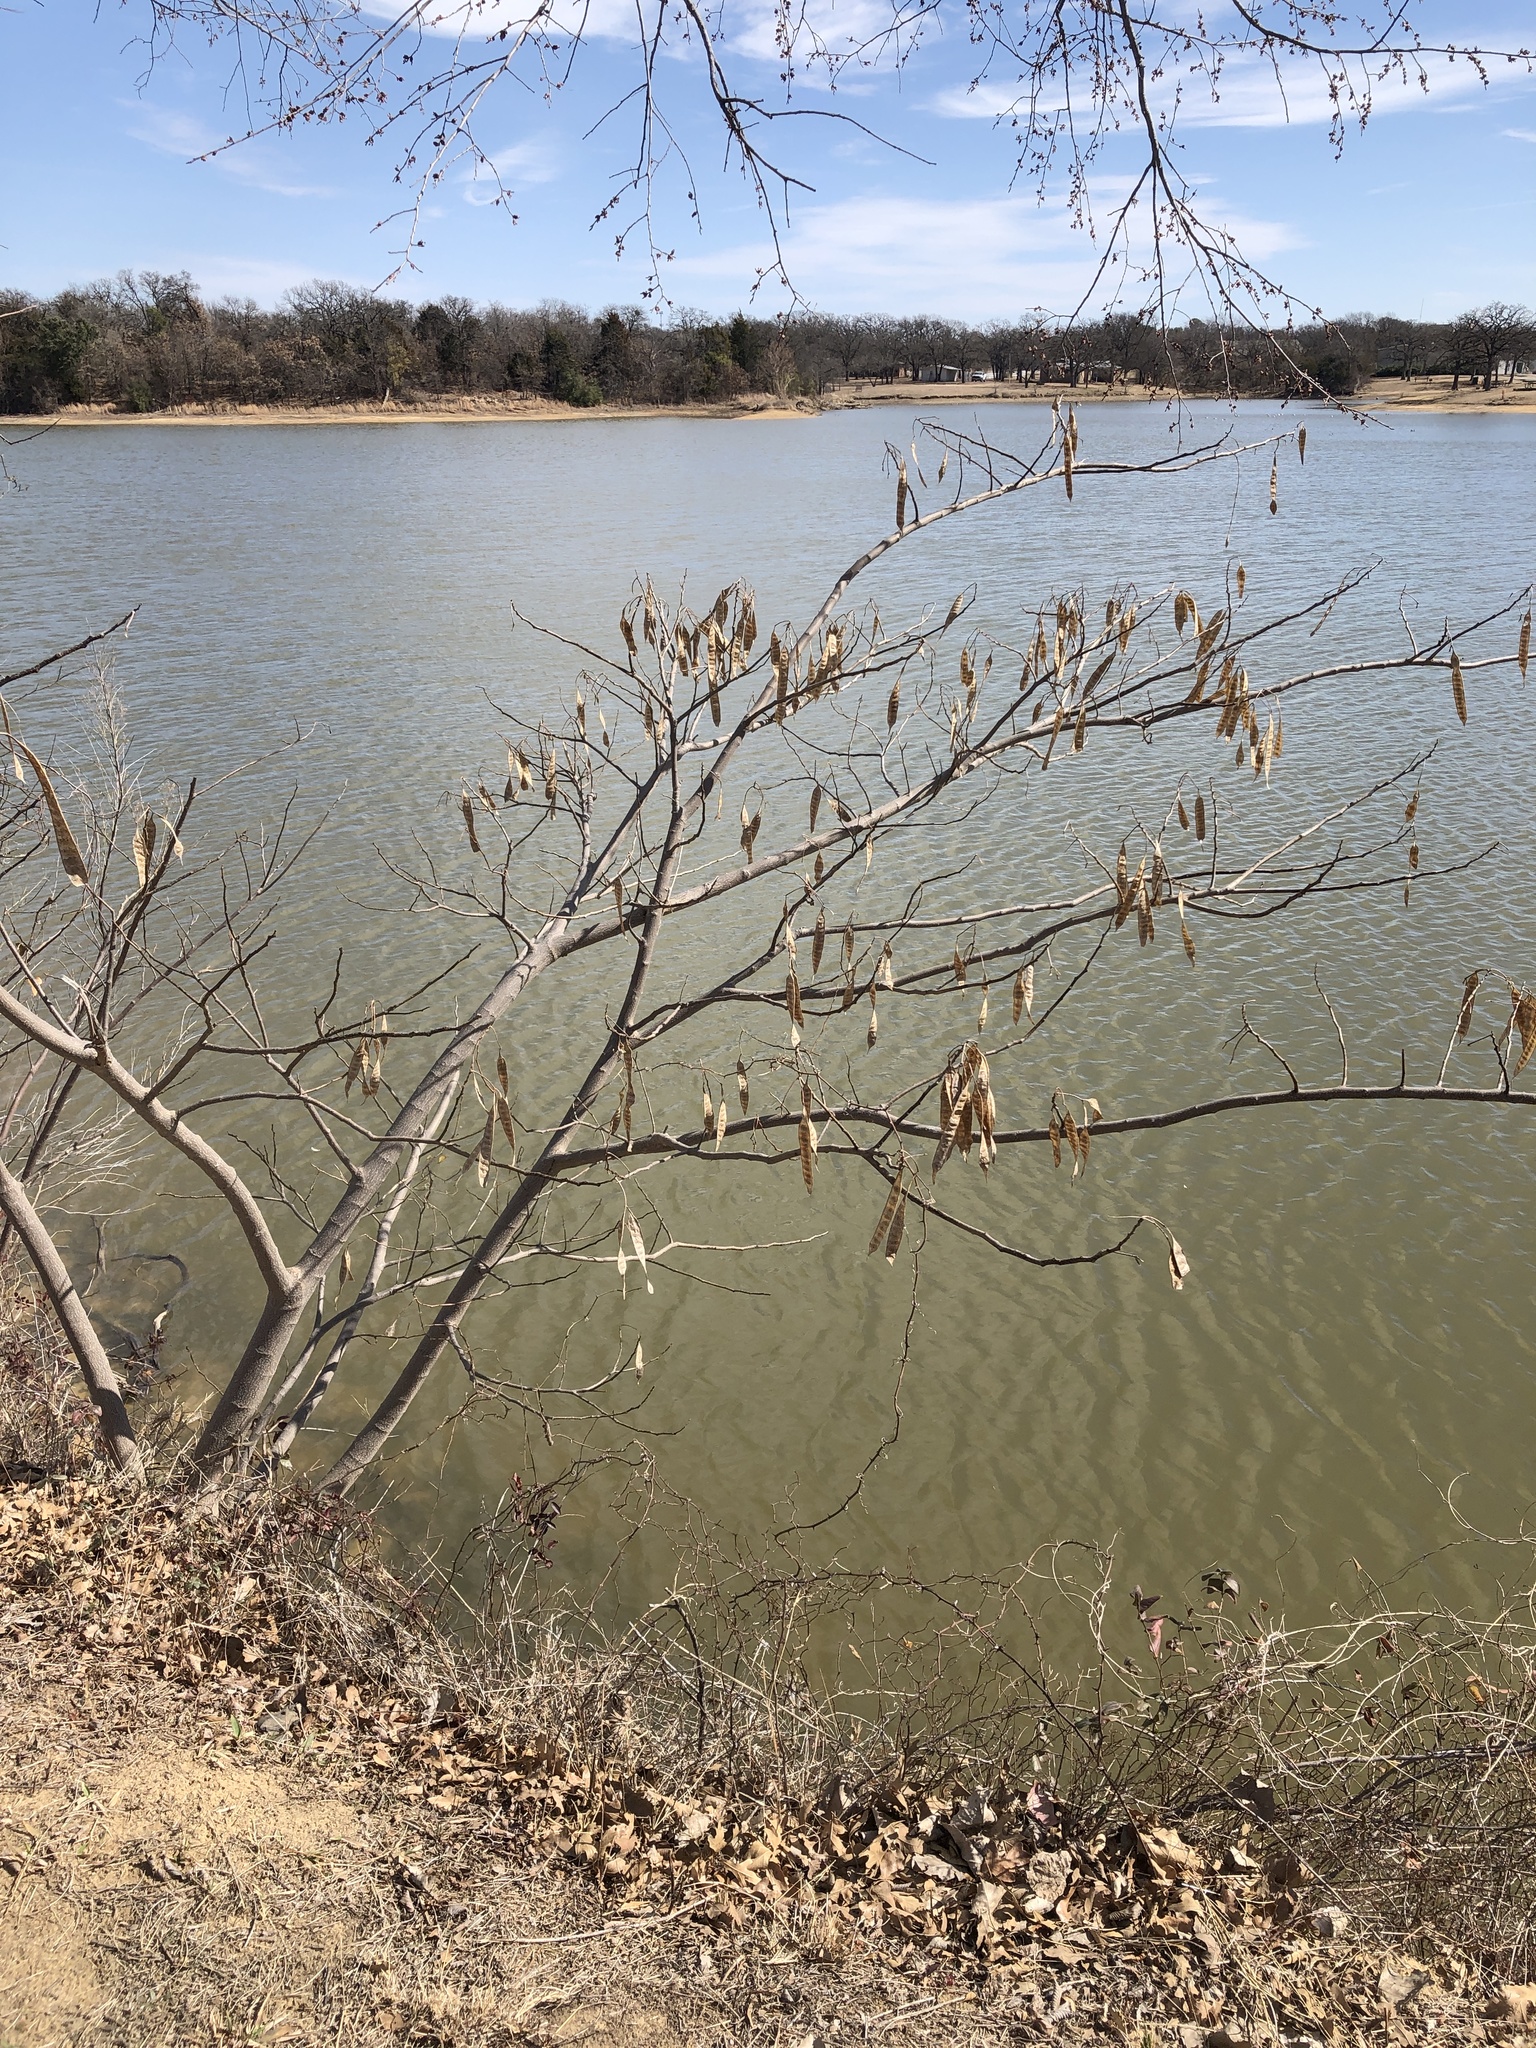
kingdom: Plantae
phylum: Tracheophyta
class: Magnoliopsida
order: Fabales
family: Fabaceae
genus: Albizia
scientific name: Albizia julibrissin
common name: Silktree
